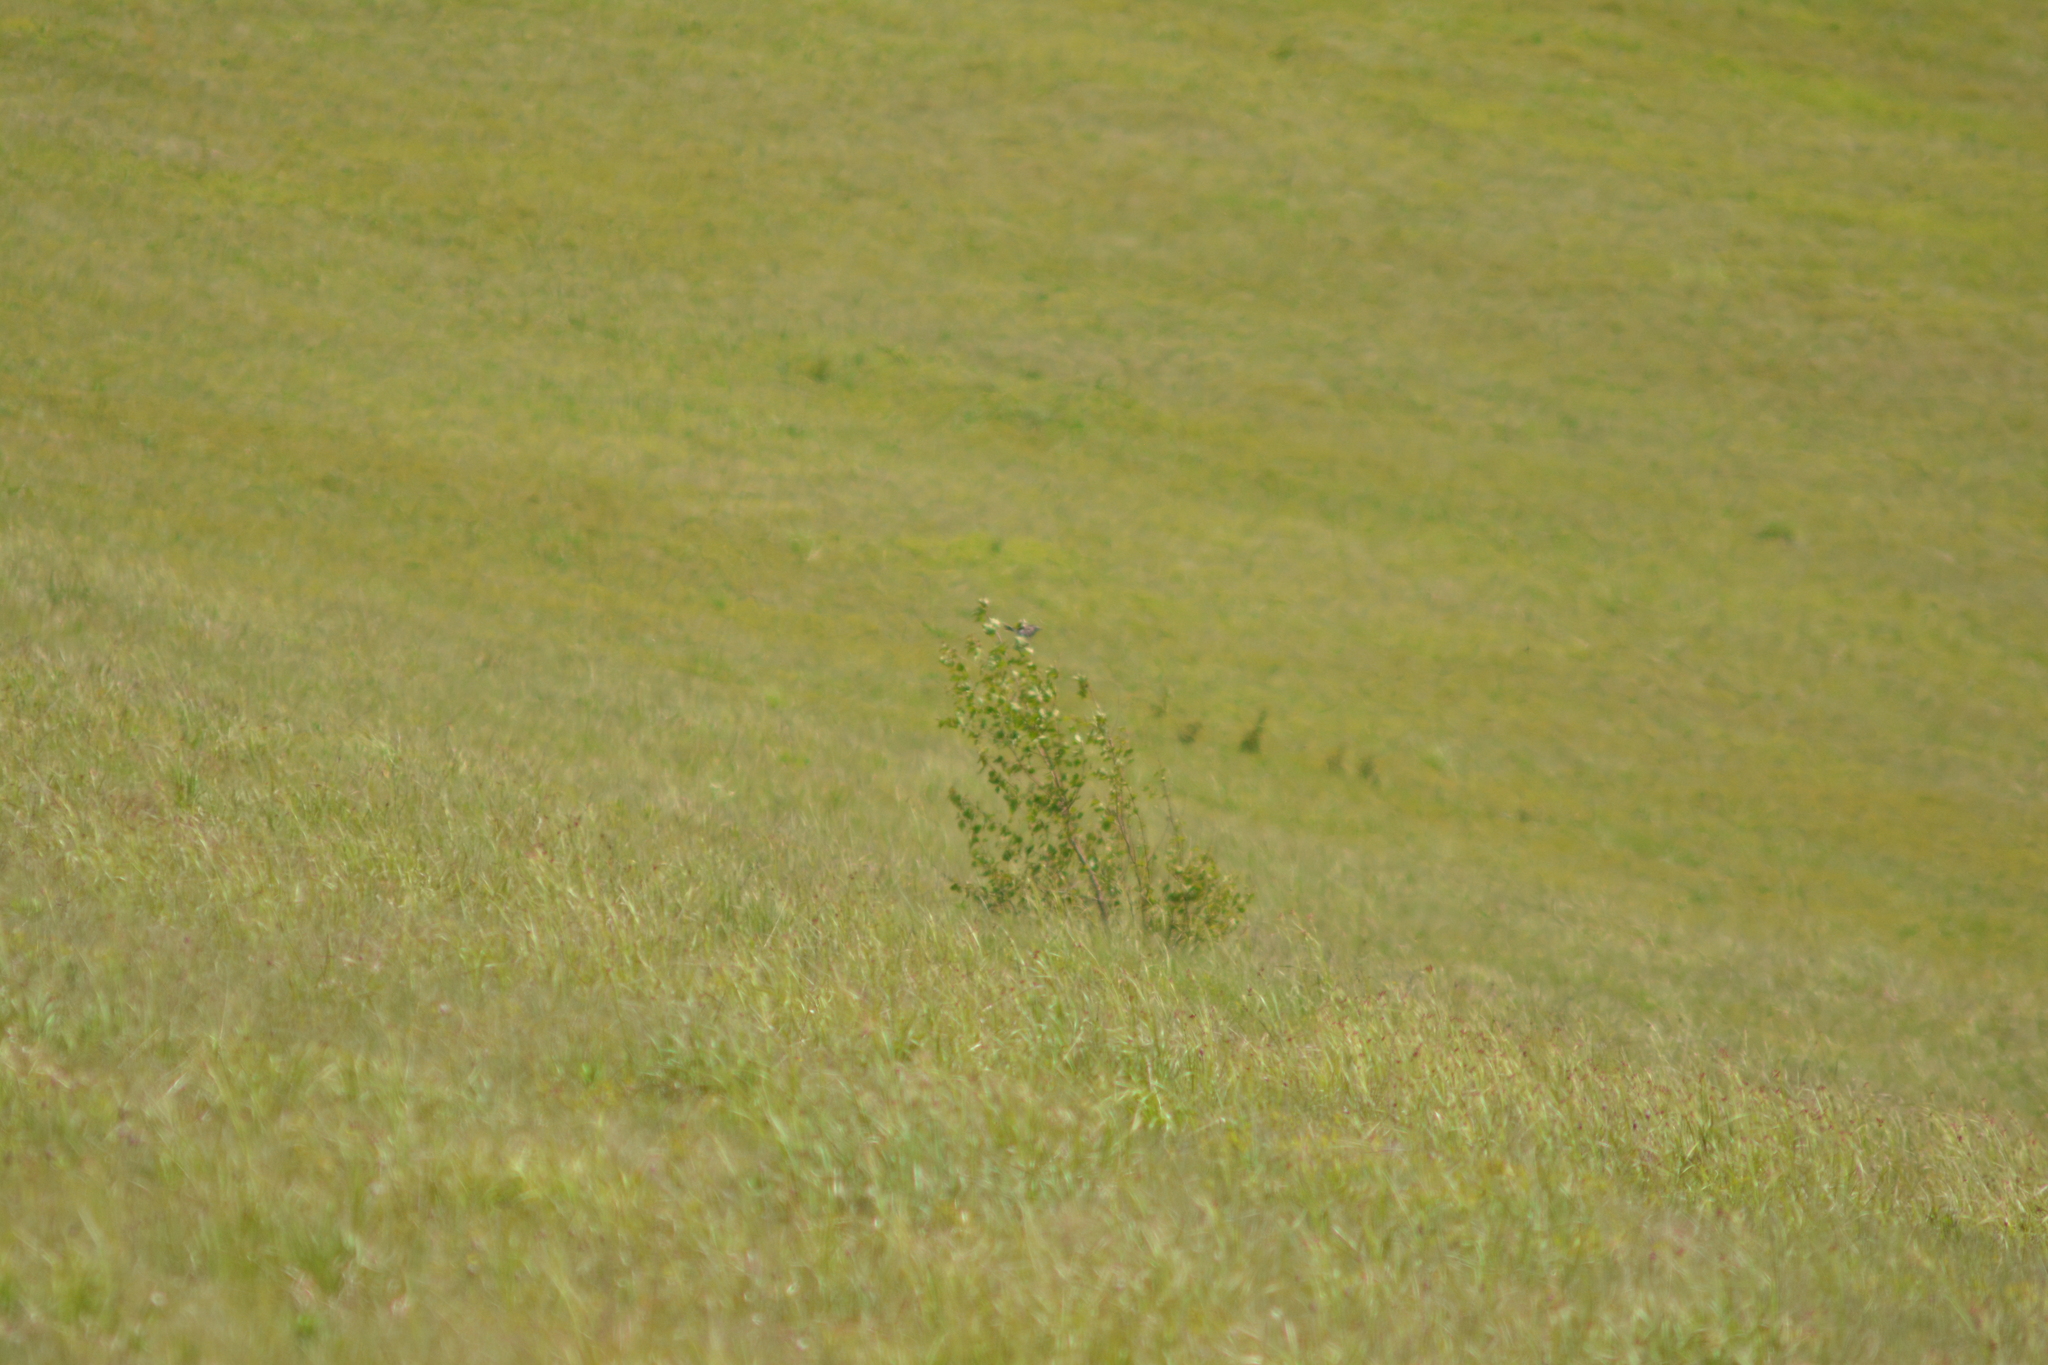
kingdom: Animalia
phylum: Chordata
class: Aves
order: Passeriformes
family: Motacillidae
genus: Anthus
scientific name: Anthus spinoletta
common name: Water pipit
